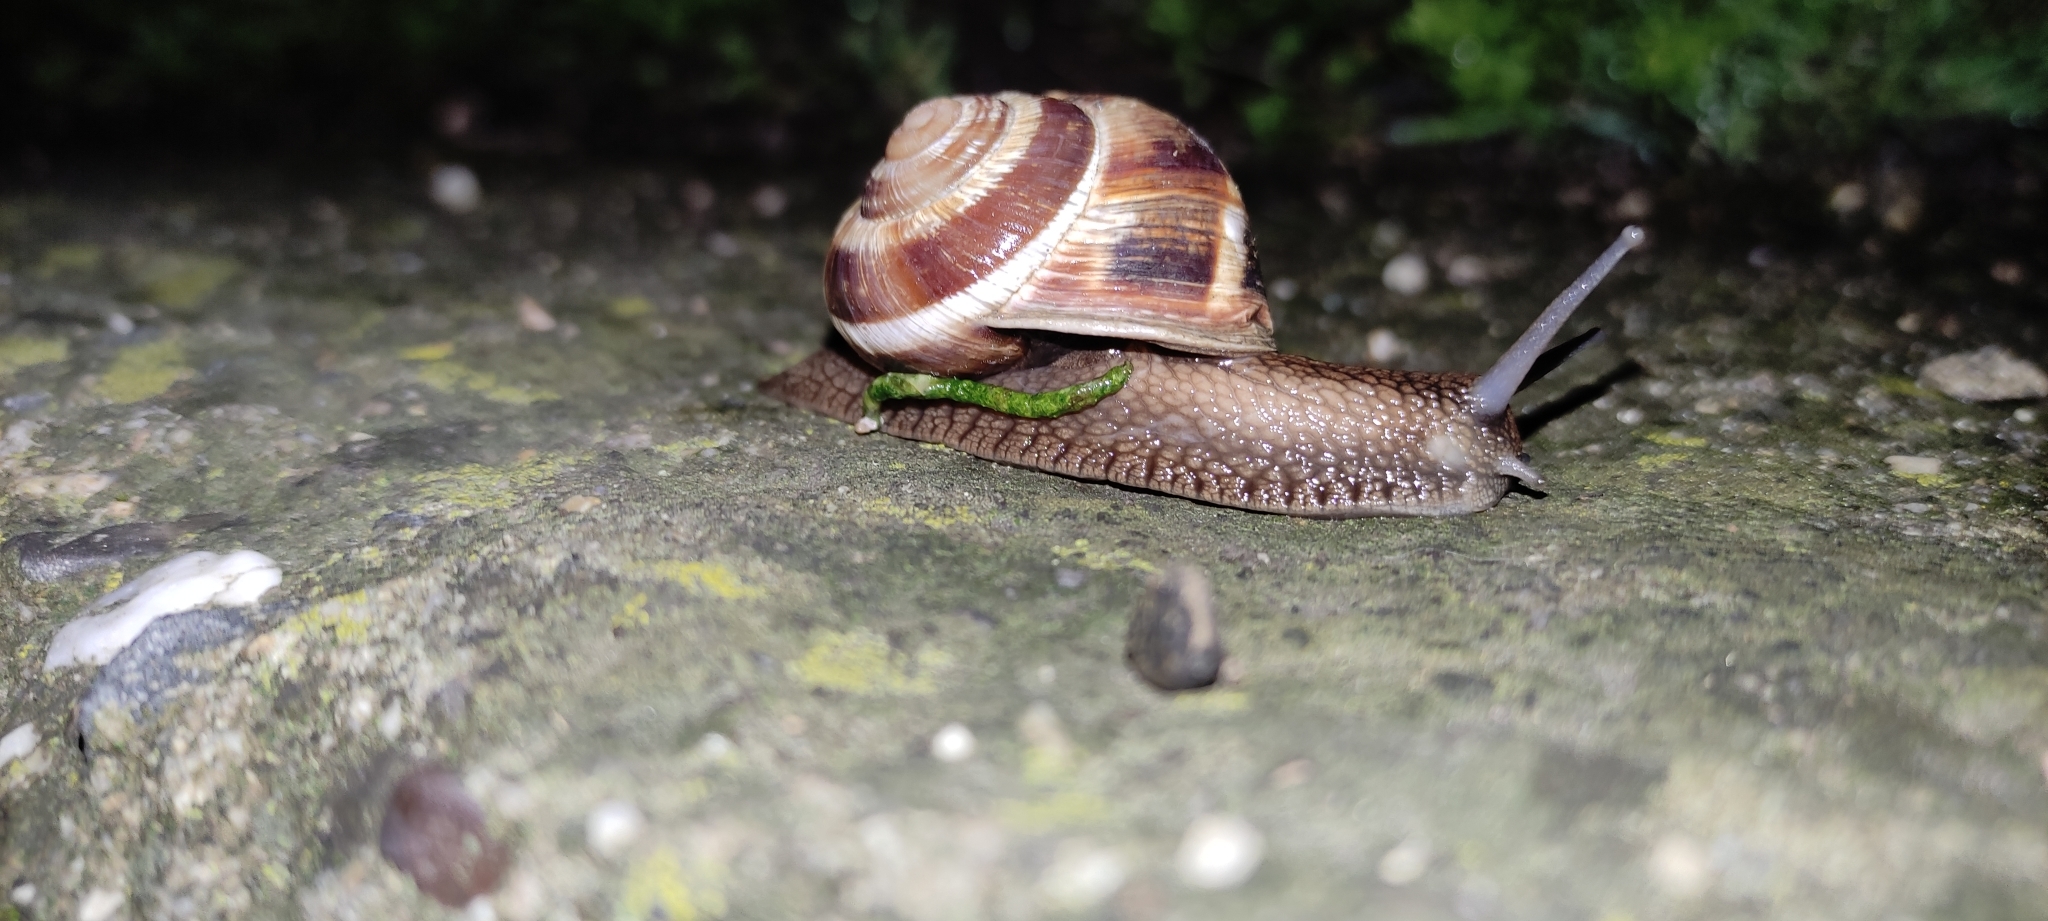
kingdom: Animalia
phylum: Mollusca
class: Gastropoda
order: Stylommatophora
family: Helicidae
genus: Helix
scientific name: Helix lucorum
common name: Turkish snail
